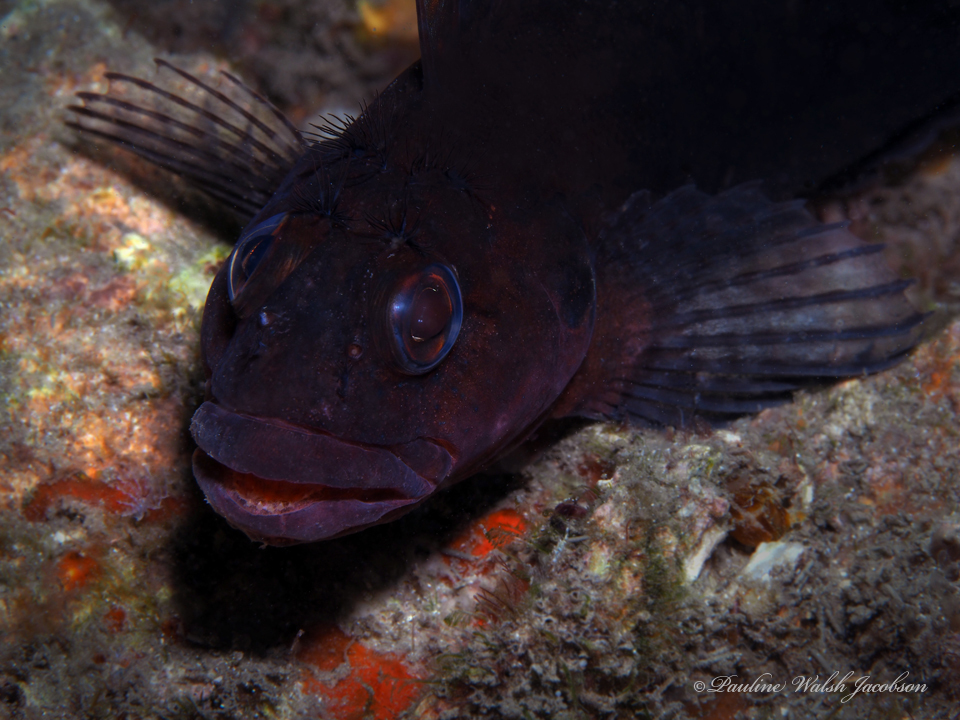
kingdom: Animalia
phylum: Chordata
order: Perciformes
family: Labrisomidae
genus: Labrisomus
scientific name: Labrisomus conditus
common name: Masquerader hairy blenny
